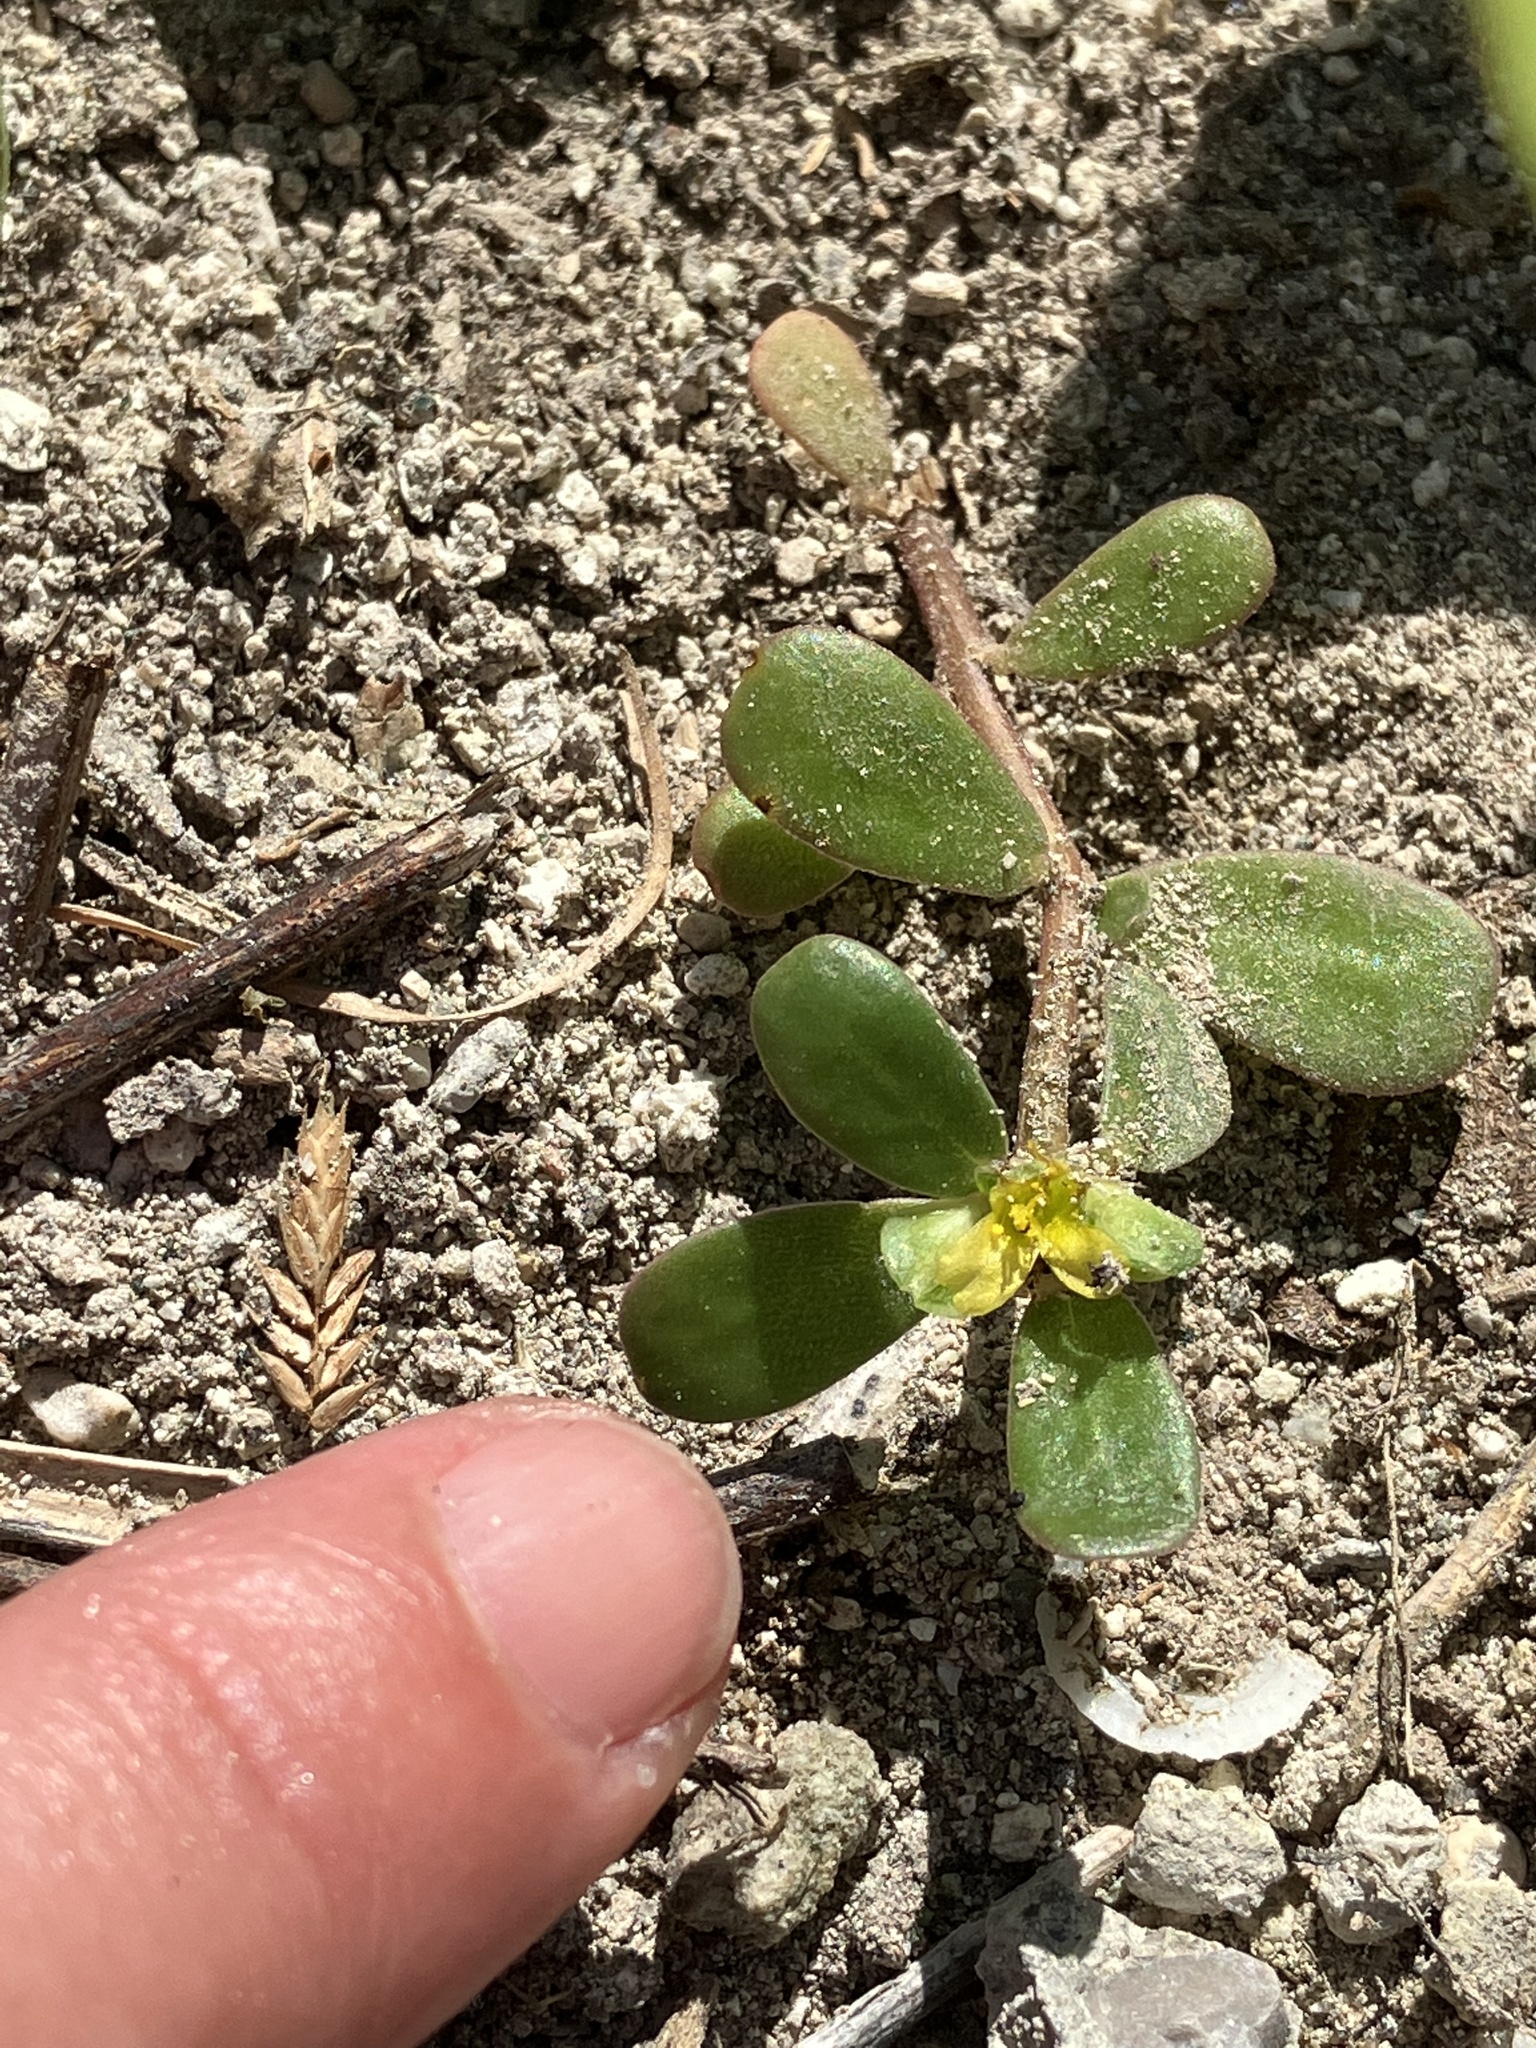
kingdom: Plantae
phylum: Tracheophyta
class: Magnoliopsida
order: Caryophyllales
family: Portulacaceae
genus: Portulaca
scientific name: Portulaca oleracea
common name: Common purslane
